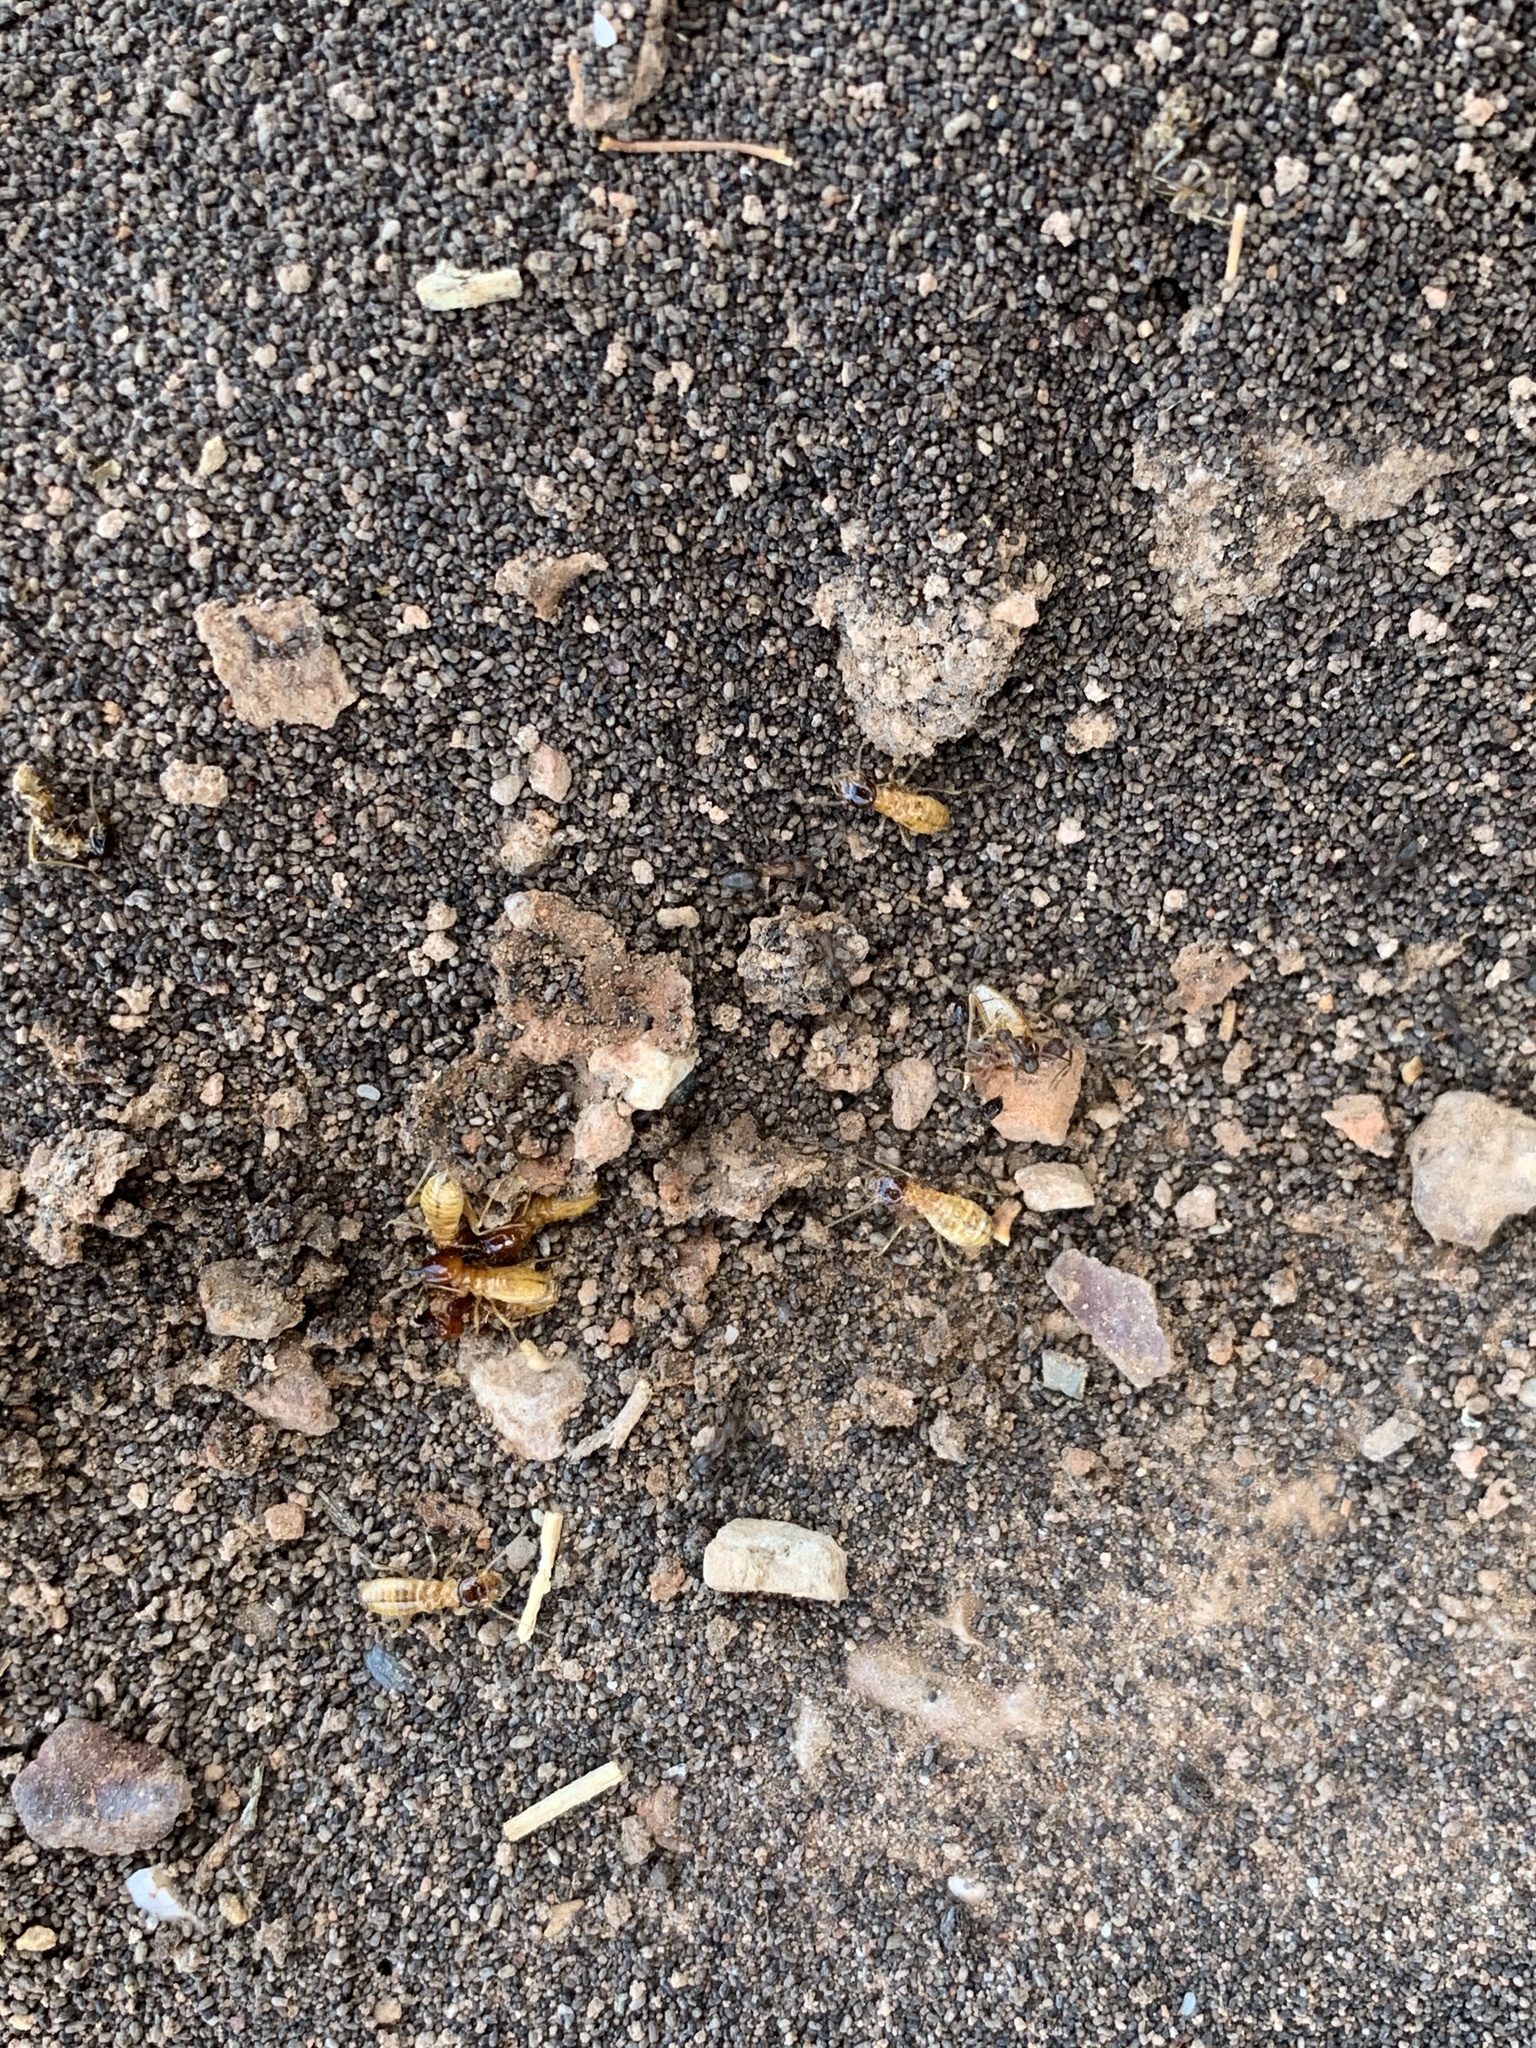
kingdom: Animalia
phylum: Arthropoda
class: Insecta
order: Blattodea
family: Hodotermitidae
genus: Microhodotermes
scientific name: Microhodotermes viator
